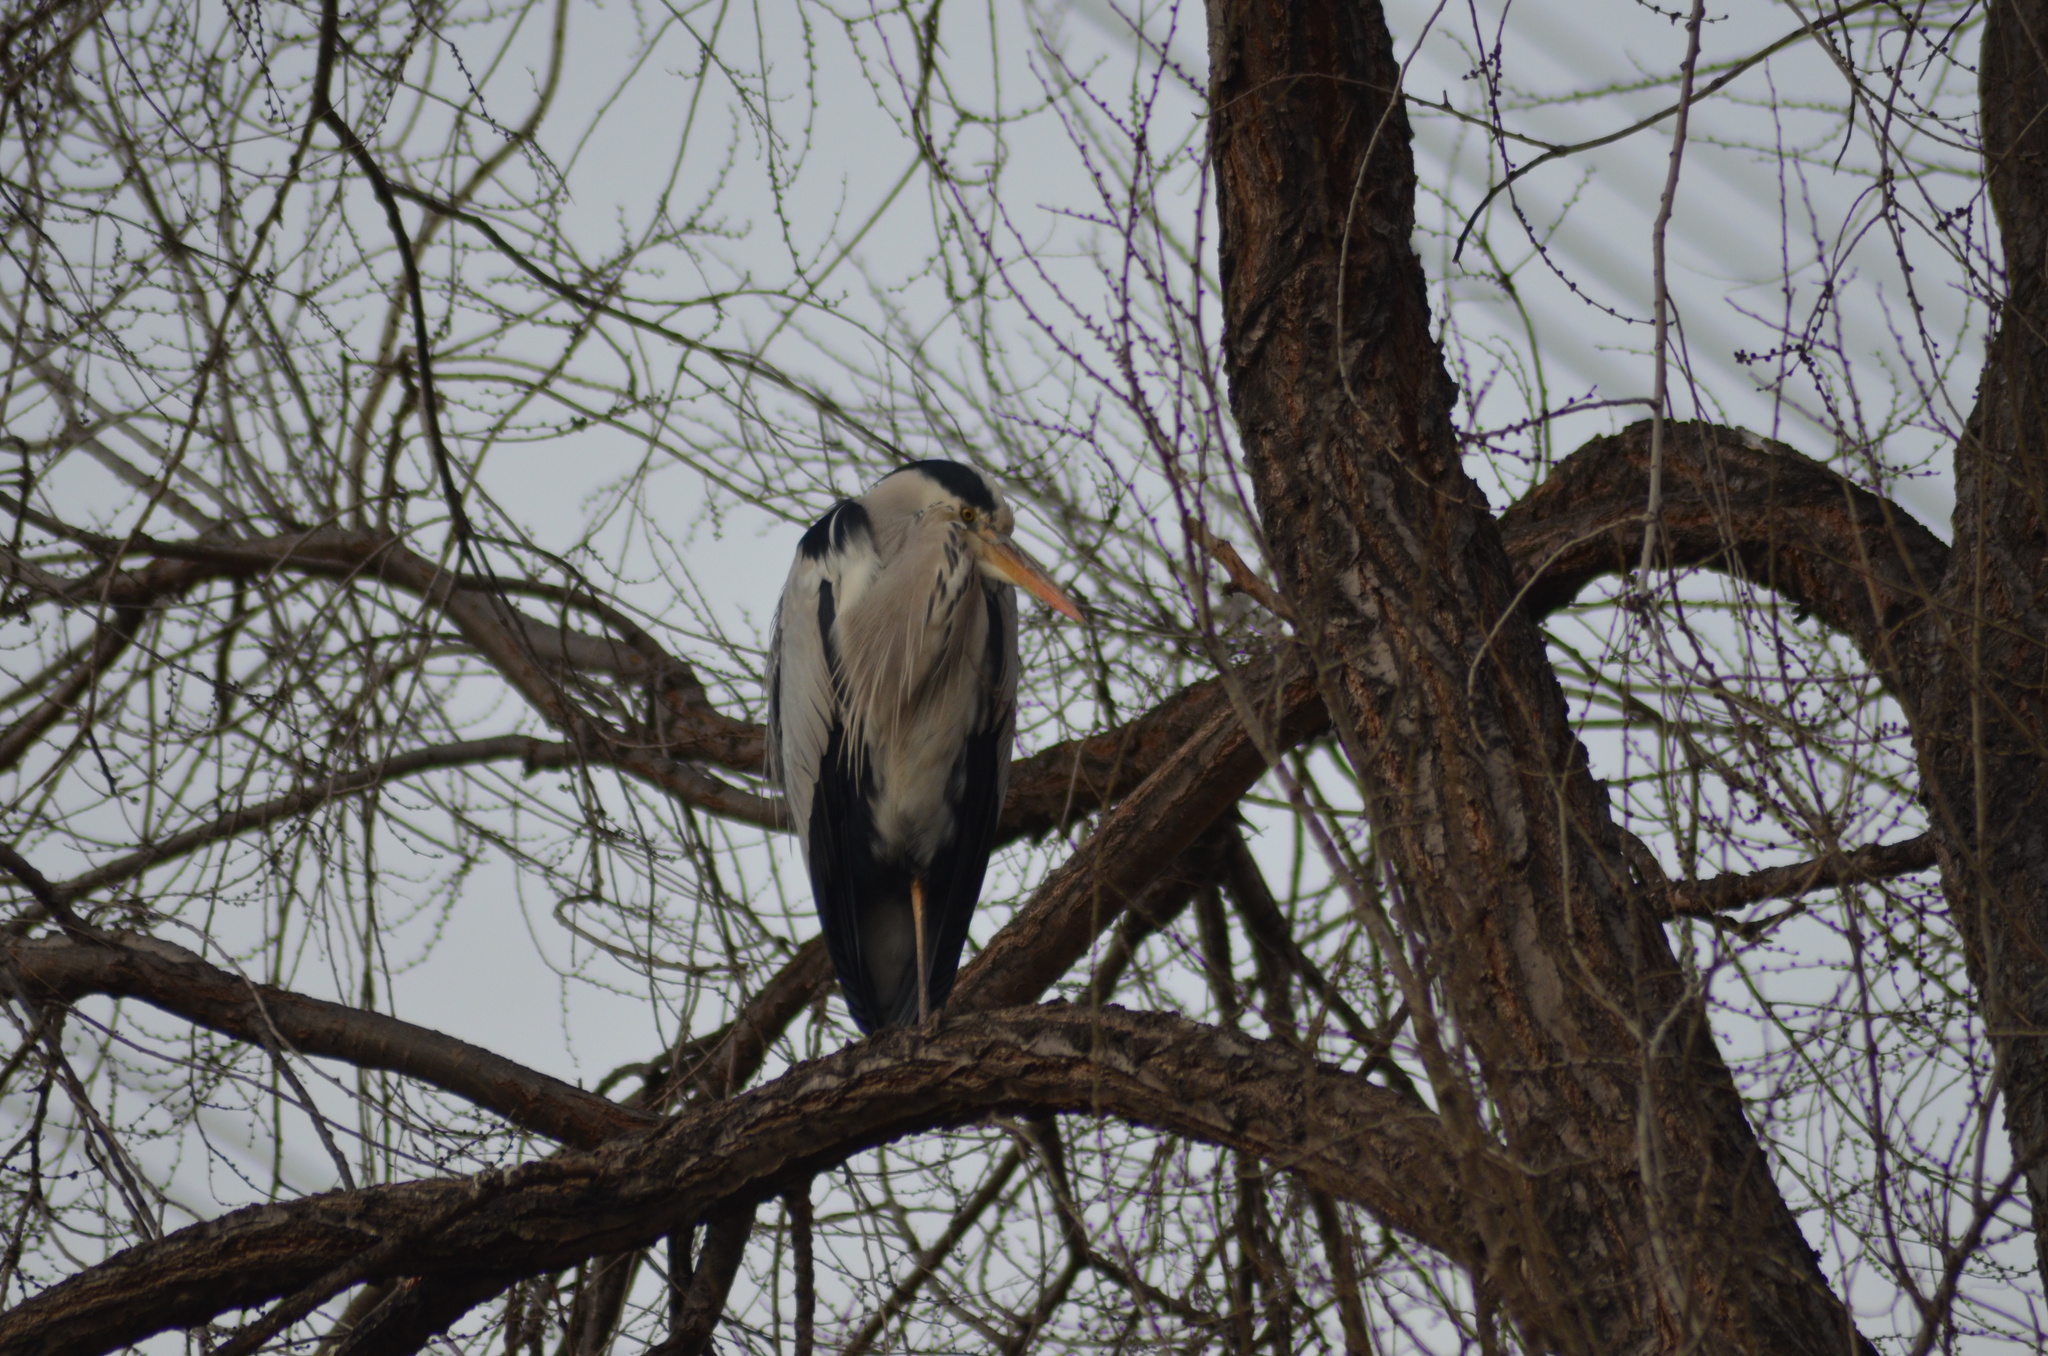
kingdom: Animalia
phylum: Chordata
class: Aves
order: Pelecaniformes
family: Ardeidae
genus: Ardea
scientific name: Ardea cinerea
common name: Grey heron
